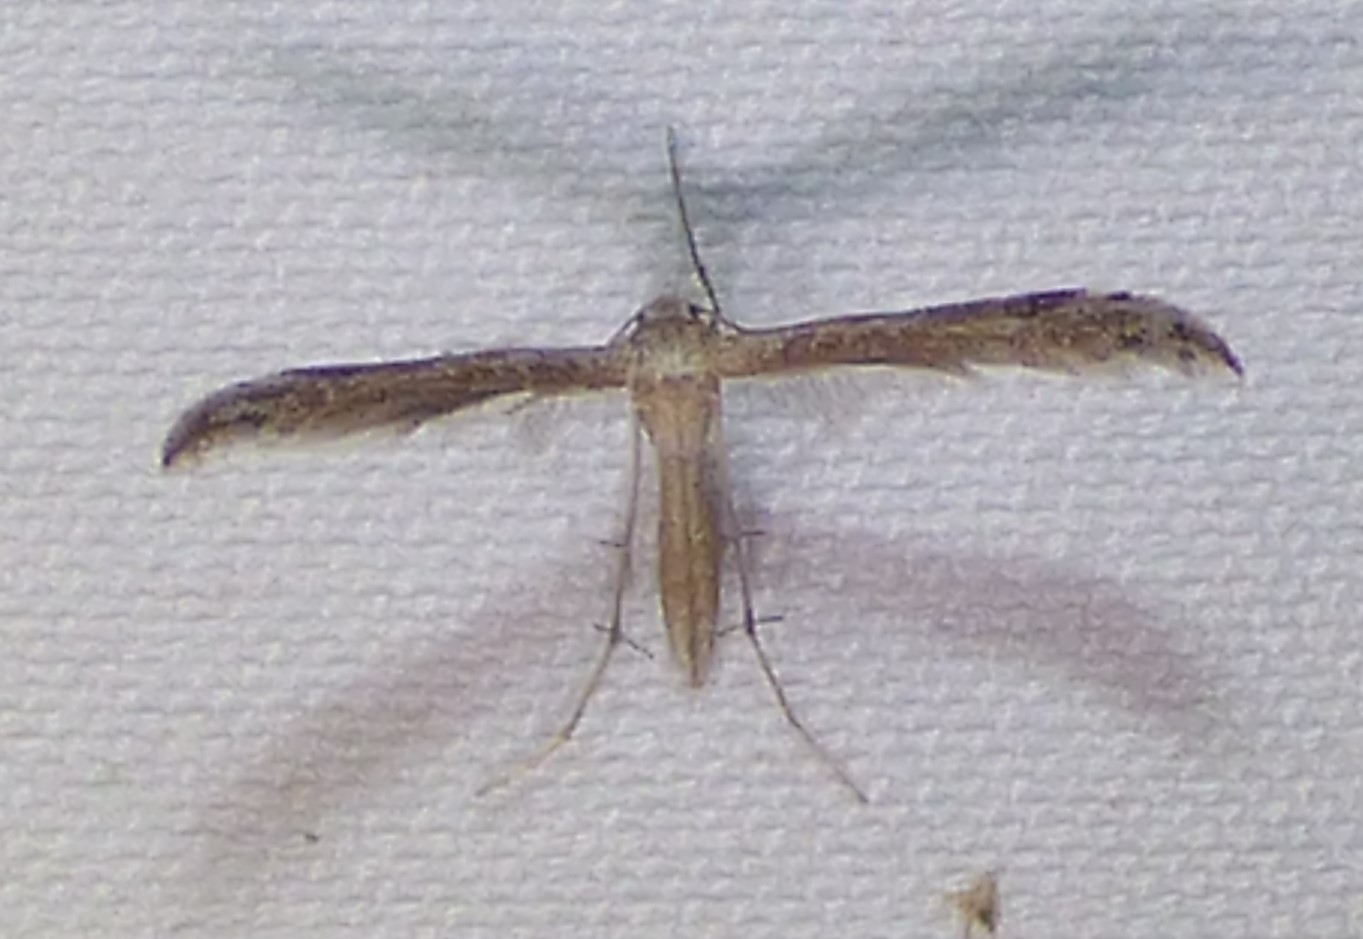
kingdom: Animalia
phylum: Arthropoda
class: Insecta
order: Lepidoptera
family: Pterophoridae
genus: Lioptilodes
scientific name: Lioptilodes albistriolatus
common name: Moth
